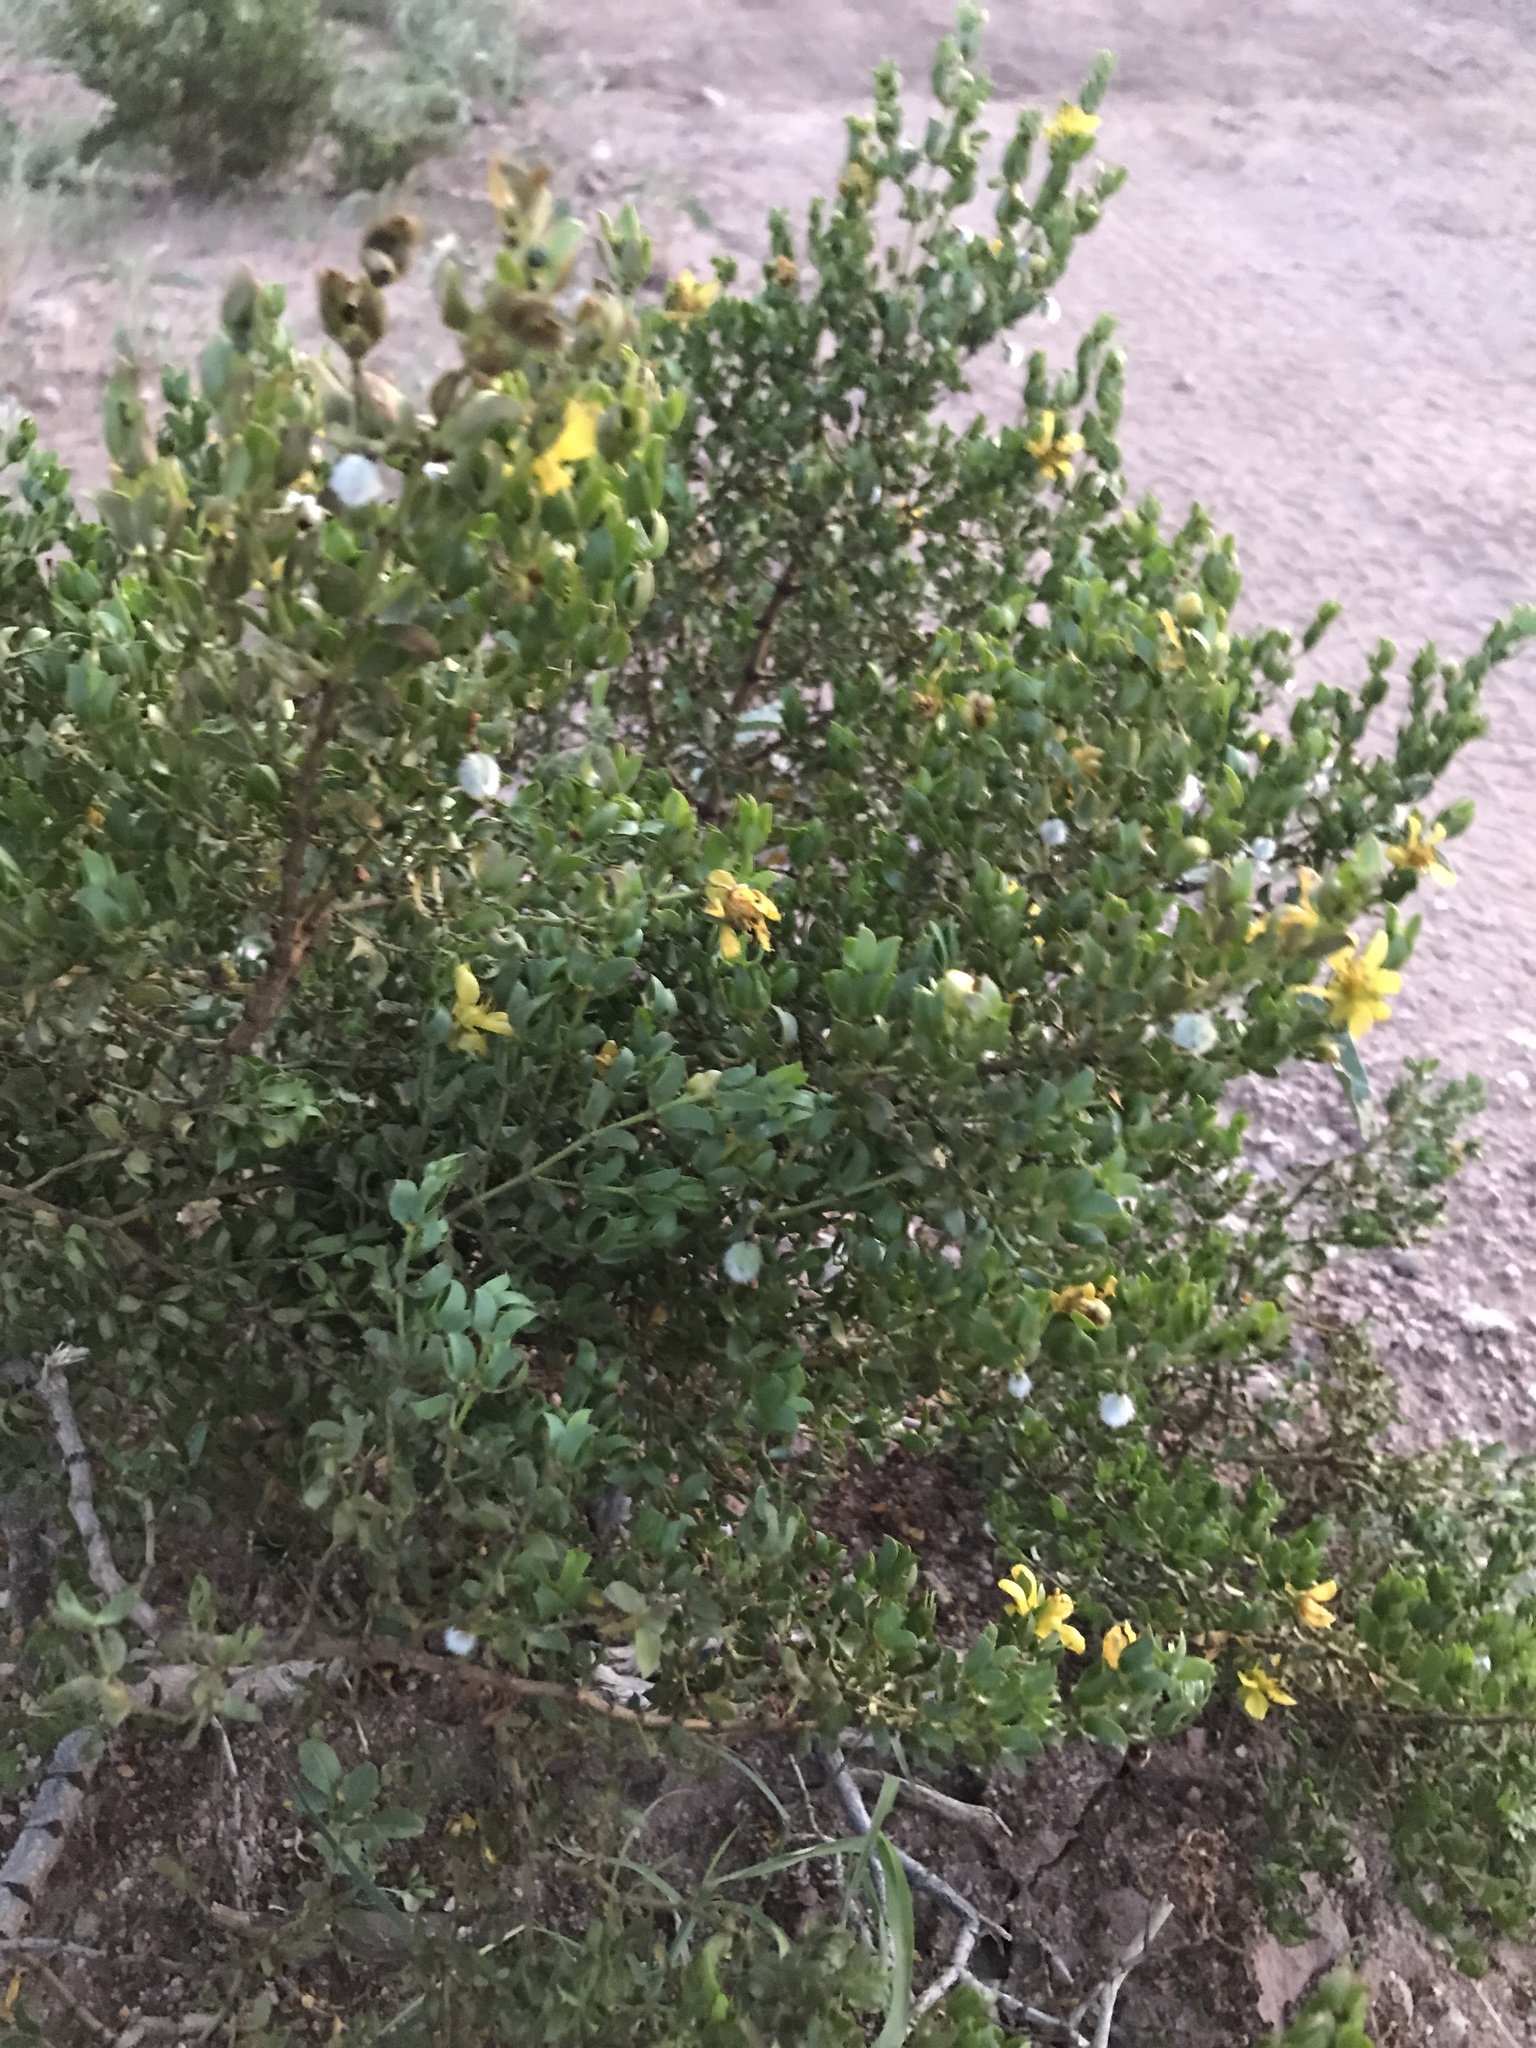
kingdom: Plantae
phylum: Tracheophyta
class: Magnoliopsida
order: Zygophyllales
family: Zygophyllaceae
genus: Larrea
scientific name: Larrea tridentata
